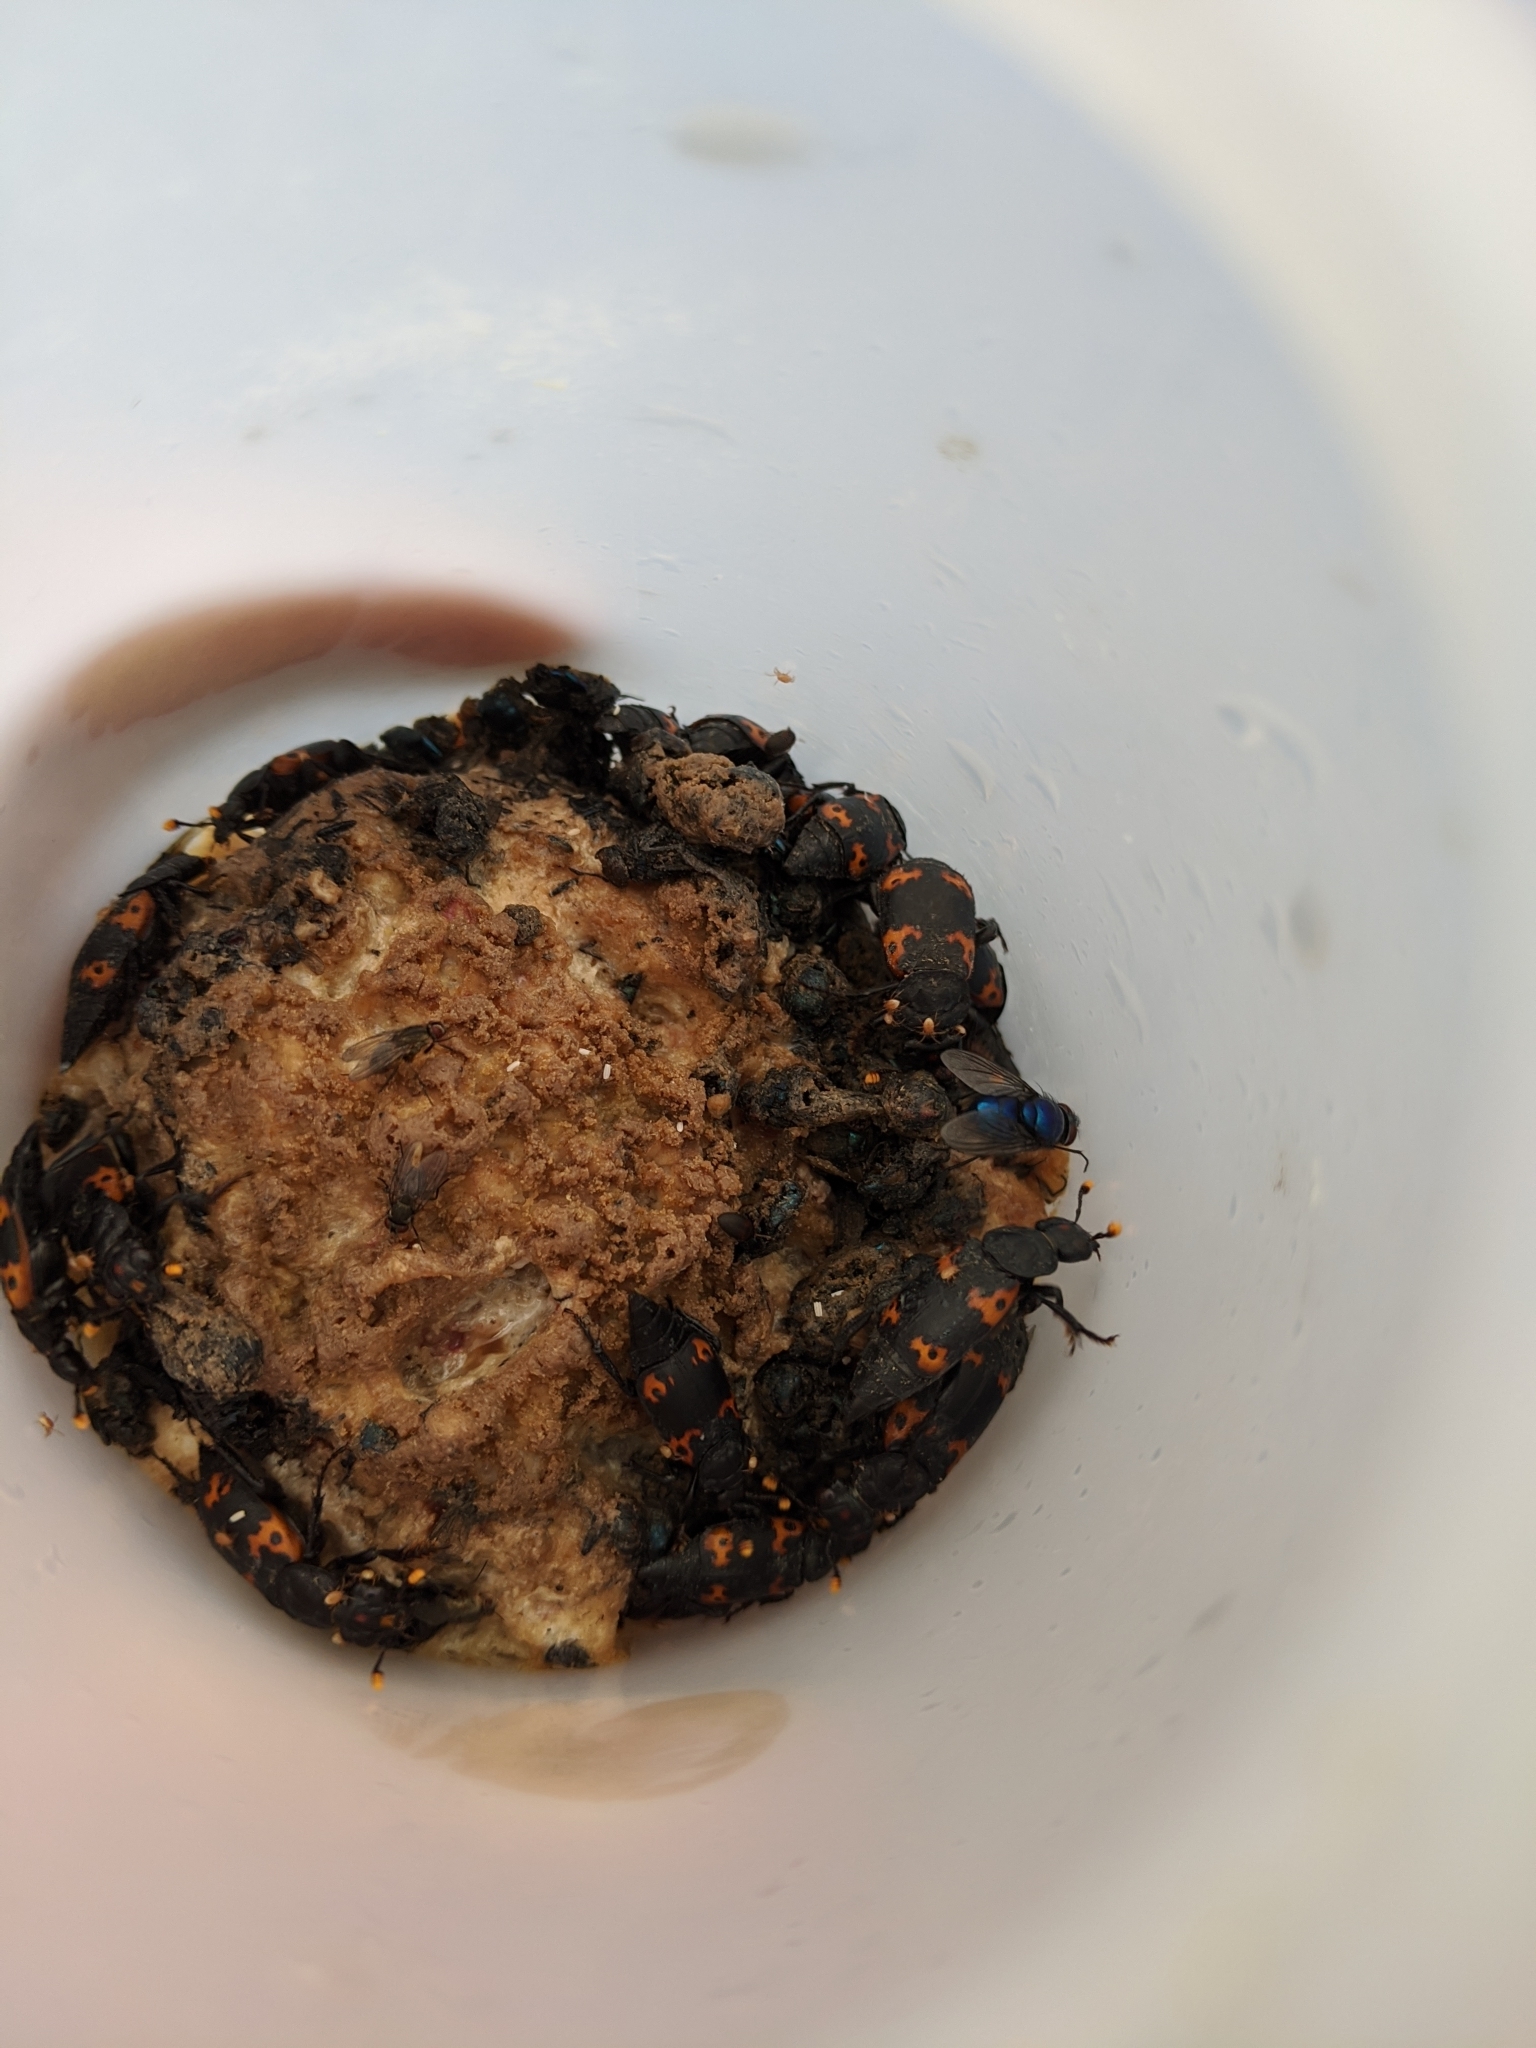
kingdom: Animalia
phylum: Arthropoda
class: Insecta
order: Coleoptera
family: Staphylinidae
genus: Nicrophorus
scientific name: Nicrophorus nepalensis
